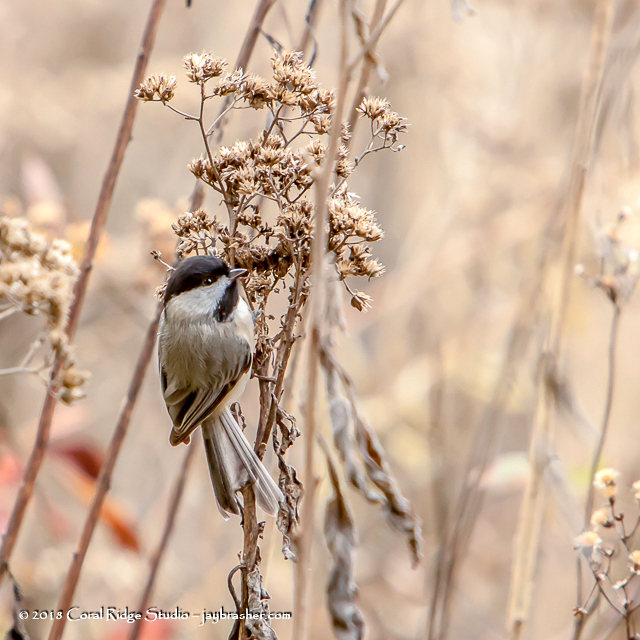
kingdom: Animalia
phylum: Chordata
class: Aves
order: Passeriformes
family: Paridae
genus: Poecile
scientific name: Poecile carolinensis
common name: Carolina chickadee
